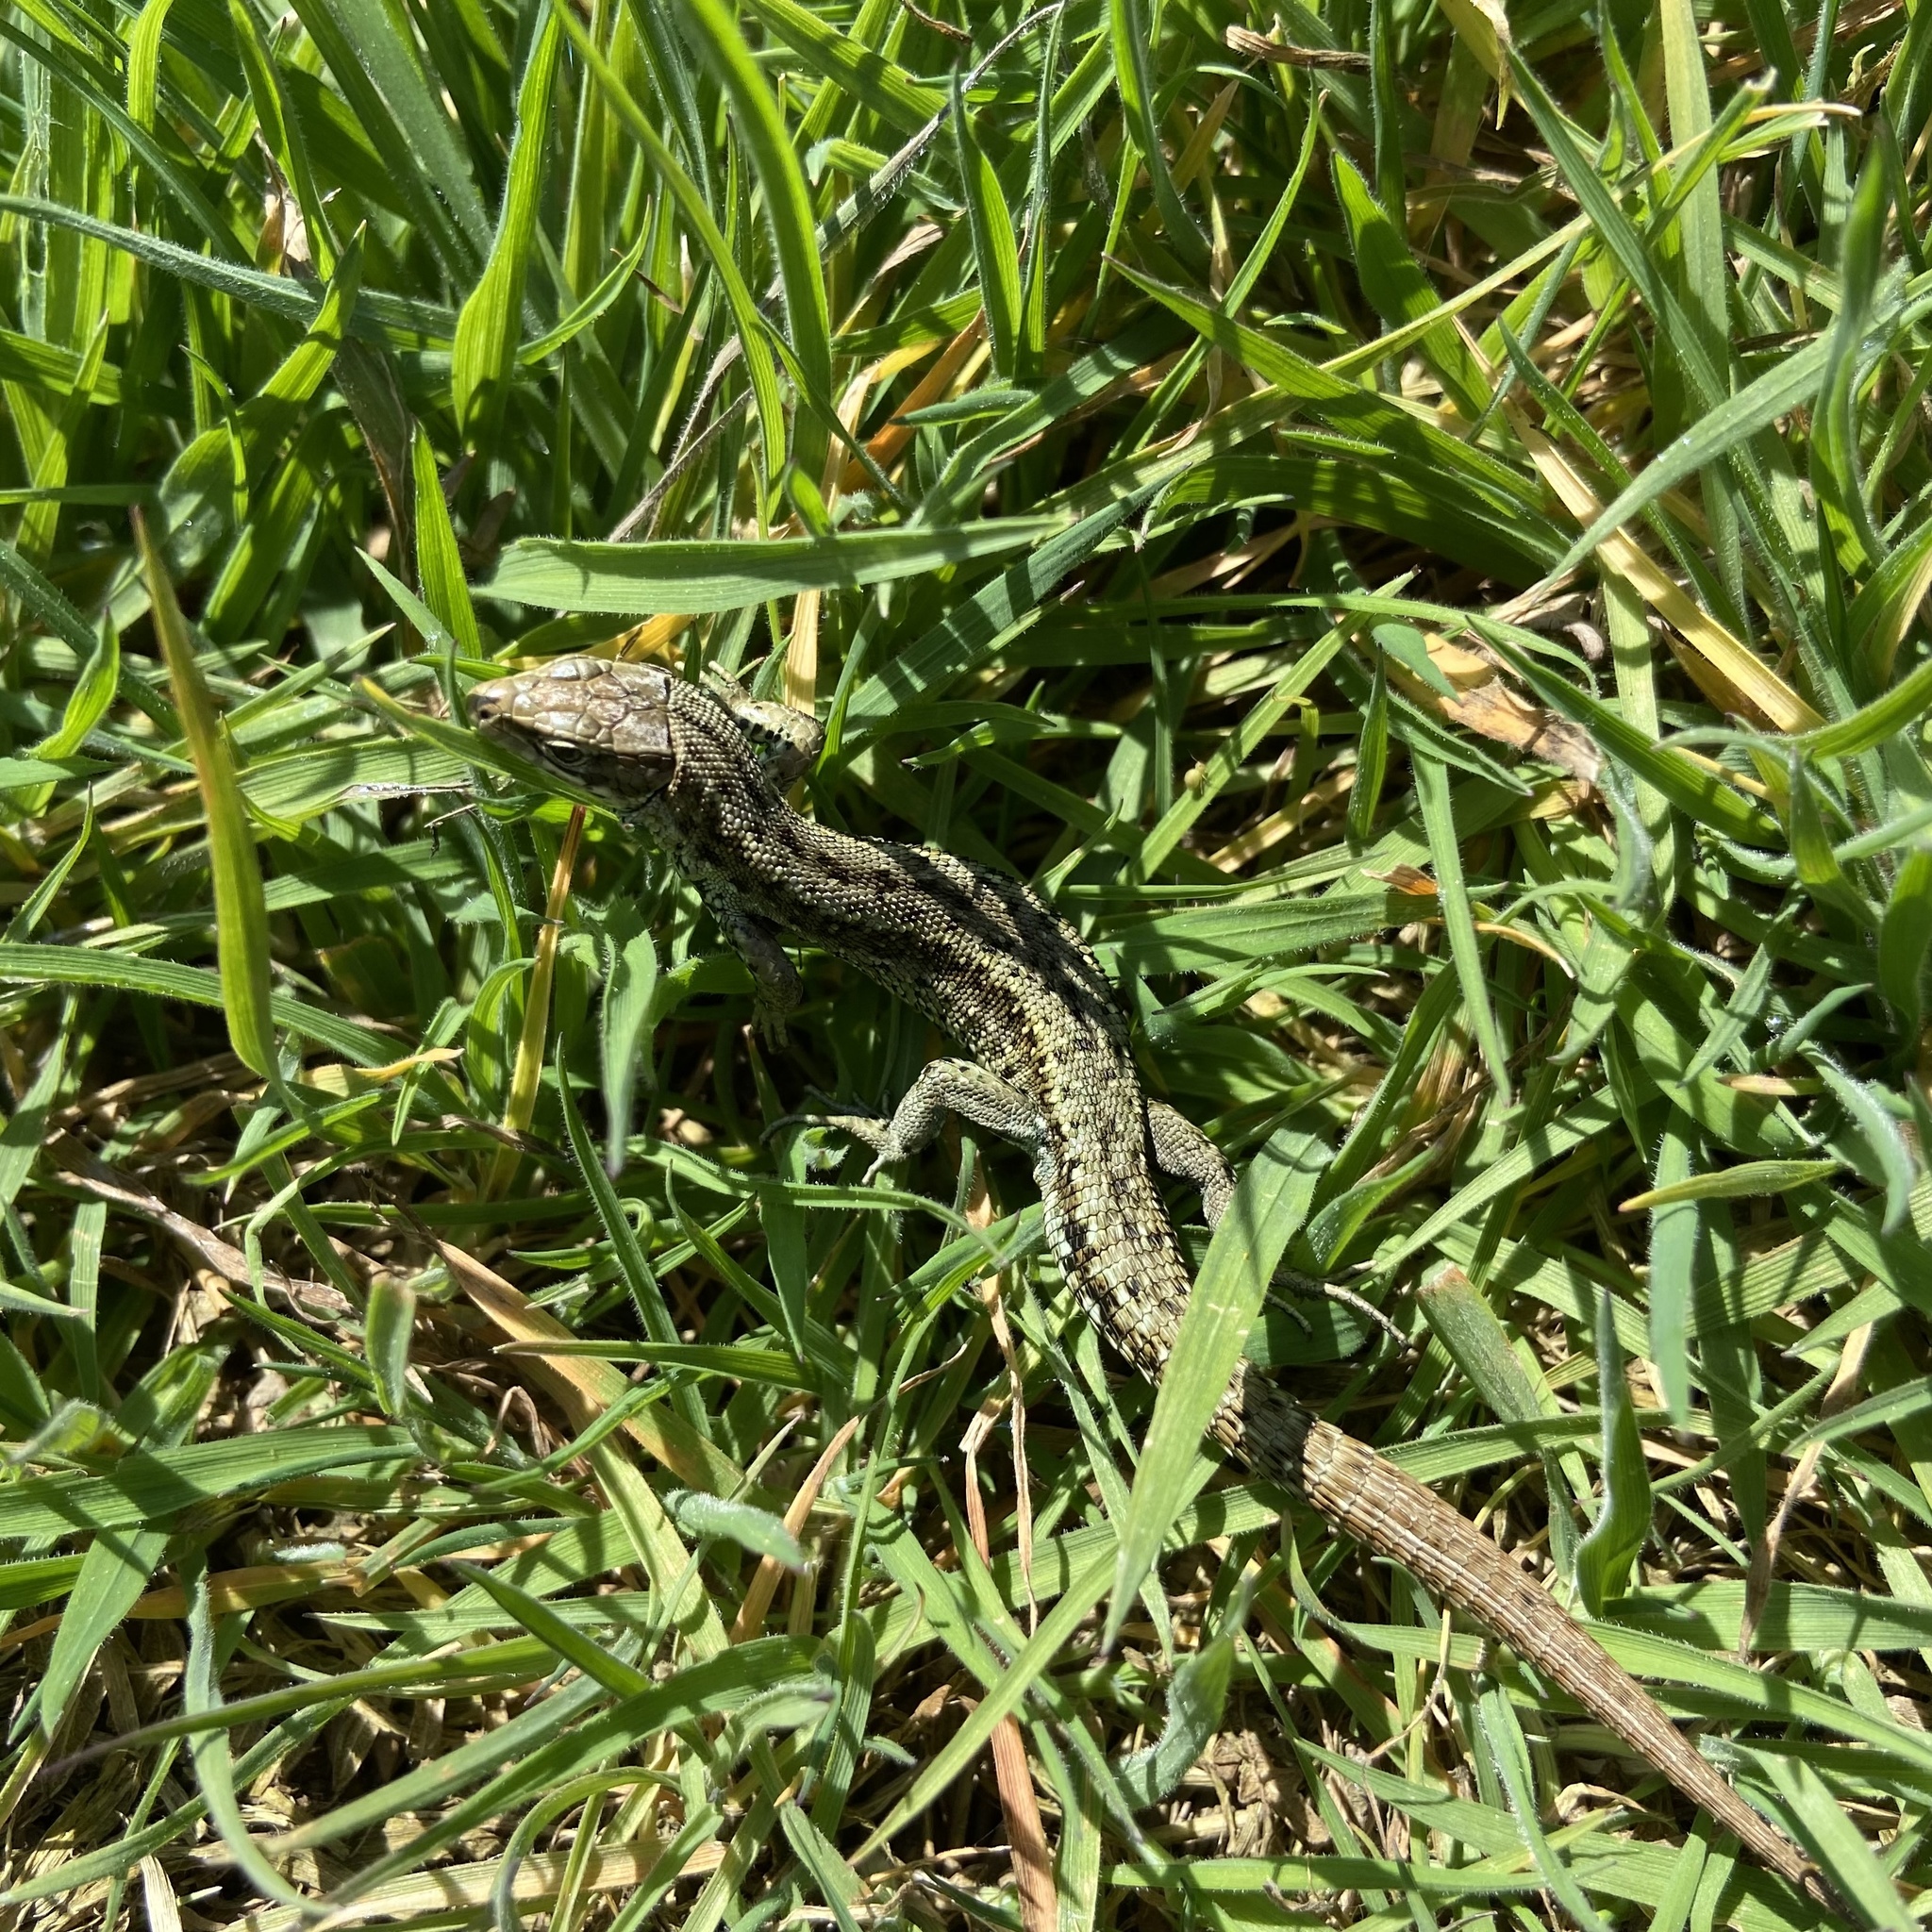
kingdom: Animalia
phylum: Chordata
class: Squamata
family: Lacertidae
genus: Zootoca
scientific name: Zootoca vivipara
